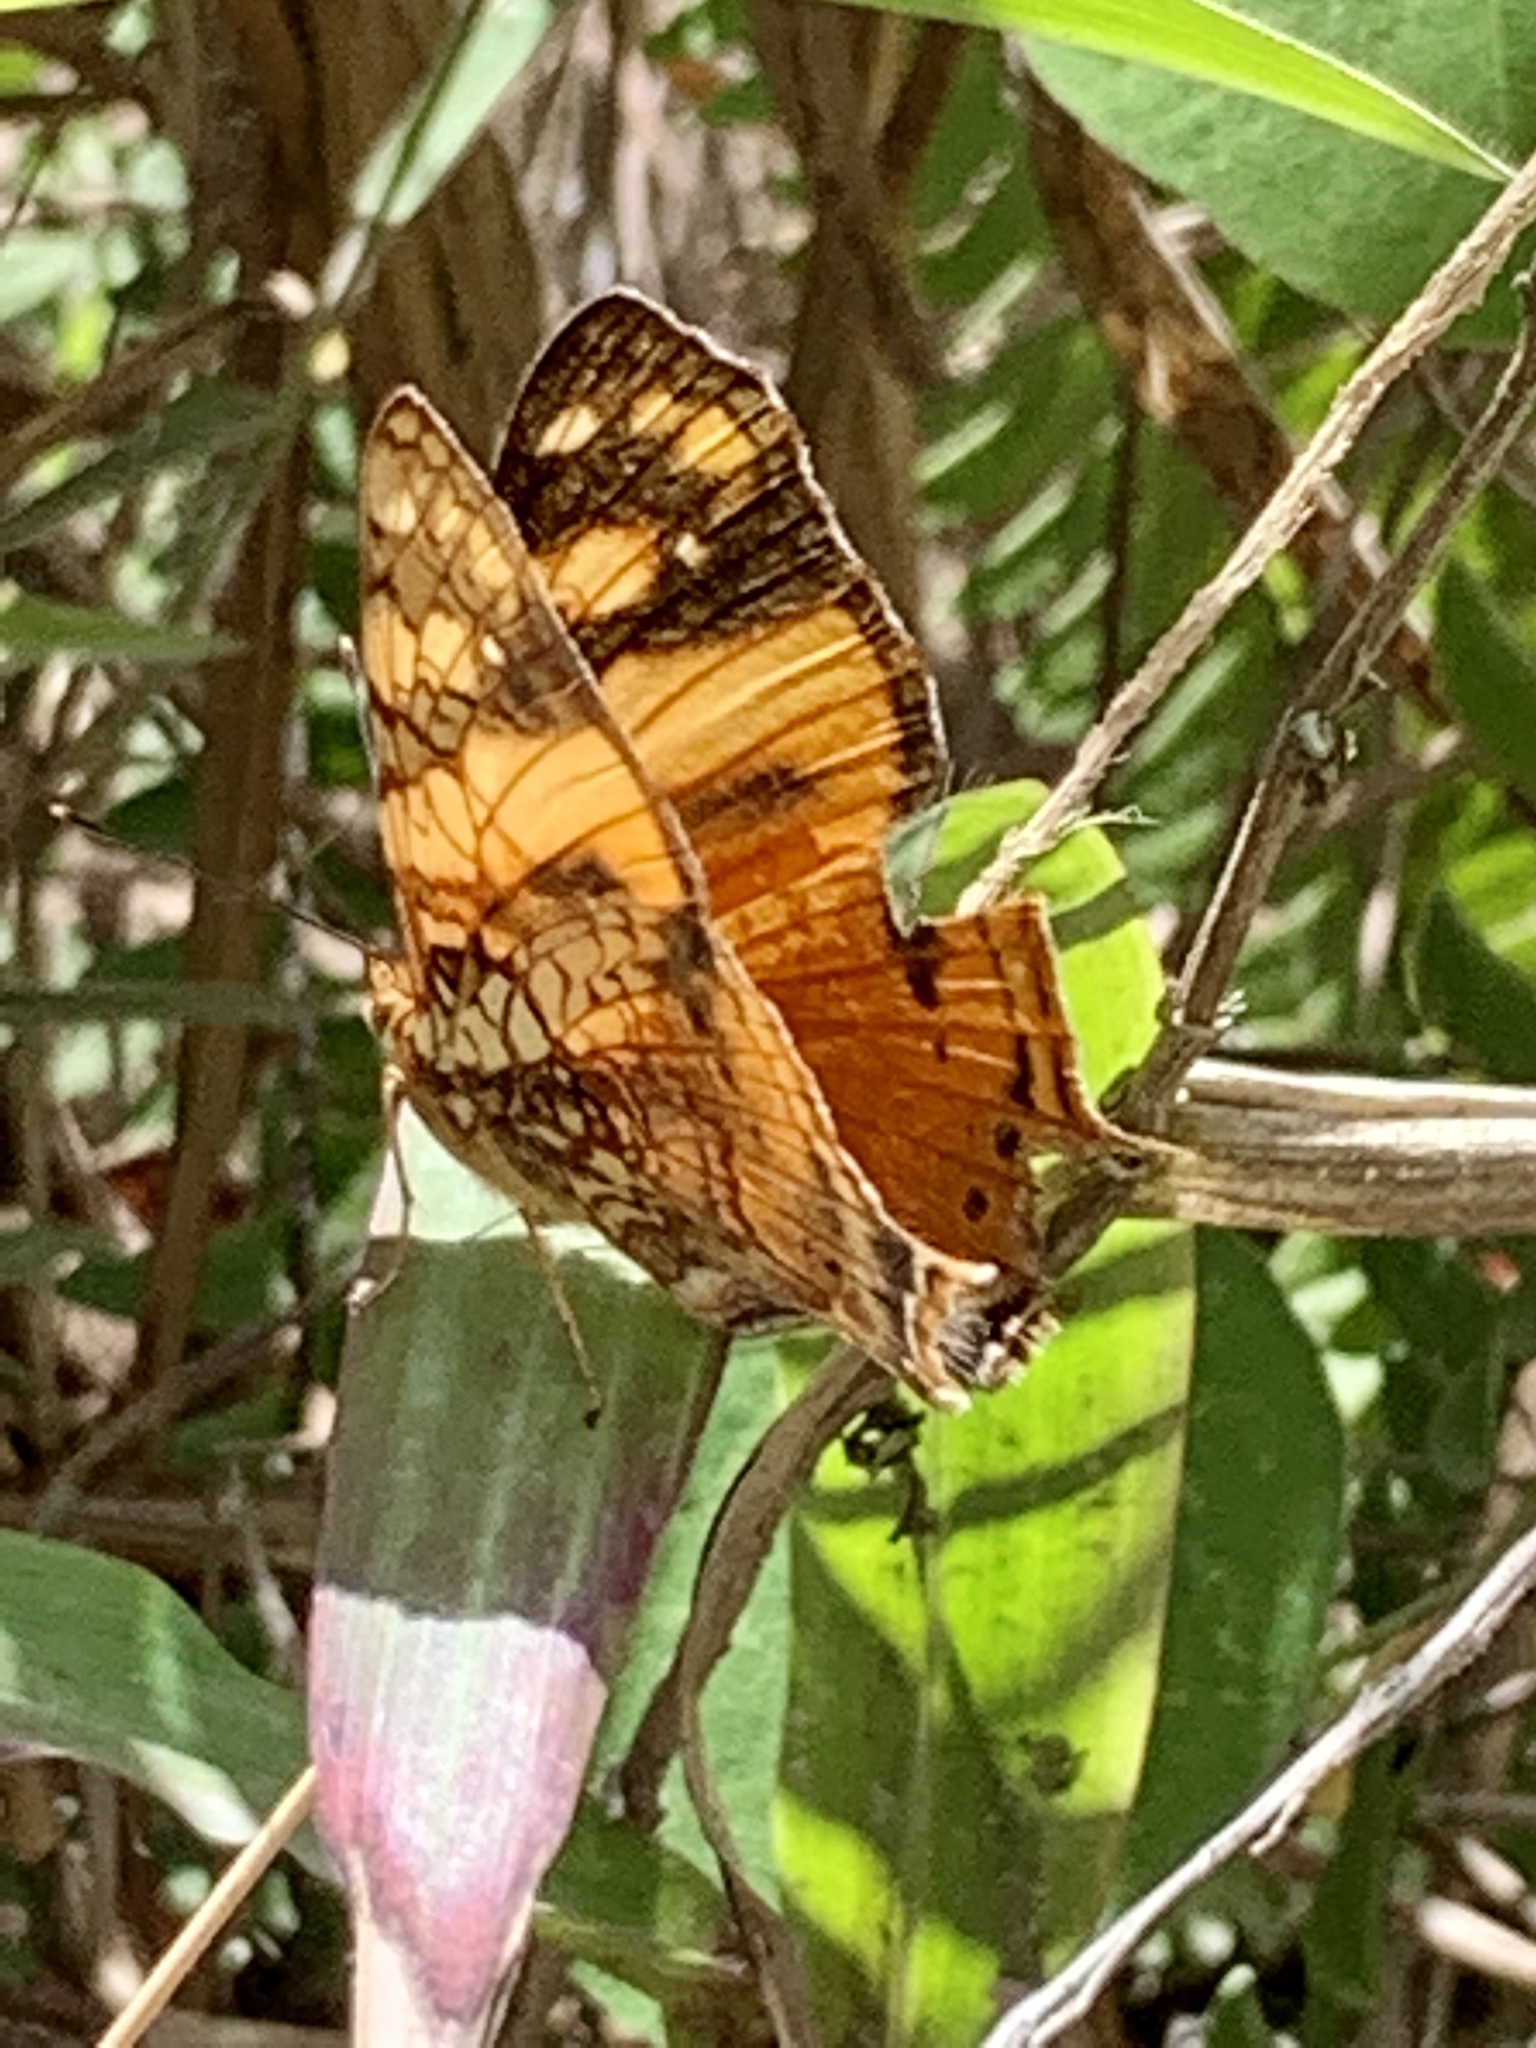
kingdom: Animalia
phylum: Arthropoda
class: Insecta
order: Lepidoptera
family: Nymphalidae
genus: Hypanartia
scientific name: Hypanartia lethe
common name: Orange mapwing
